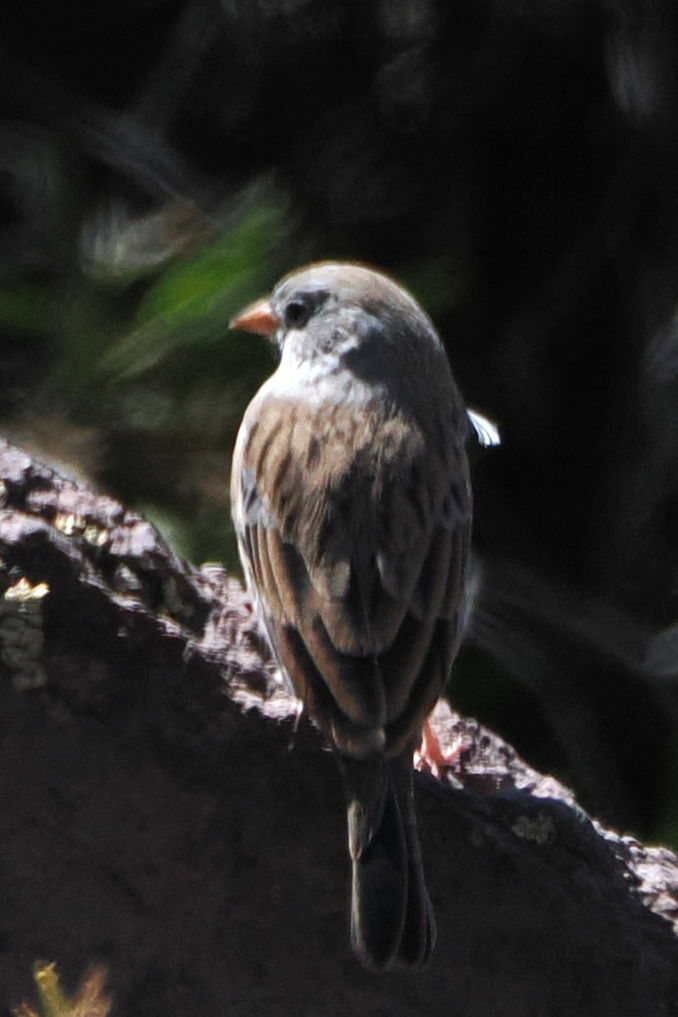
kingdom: Animalia
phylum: Chordata
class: Aves
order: Passeriformes
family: Thraupidae
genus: Porphyrospiza
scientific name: Porphyrospiza alaudina
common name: Band-tailed sierra finch
